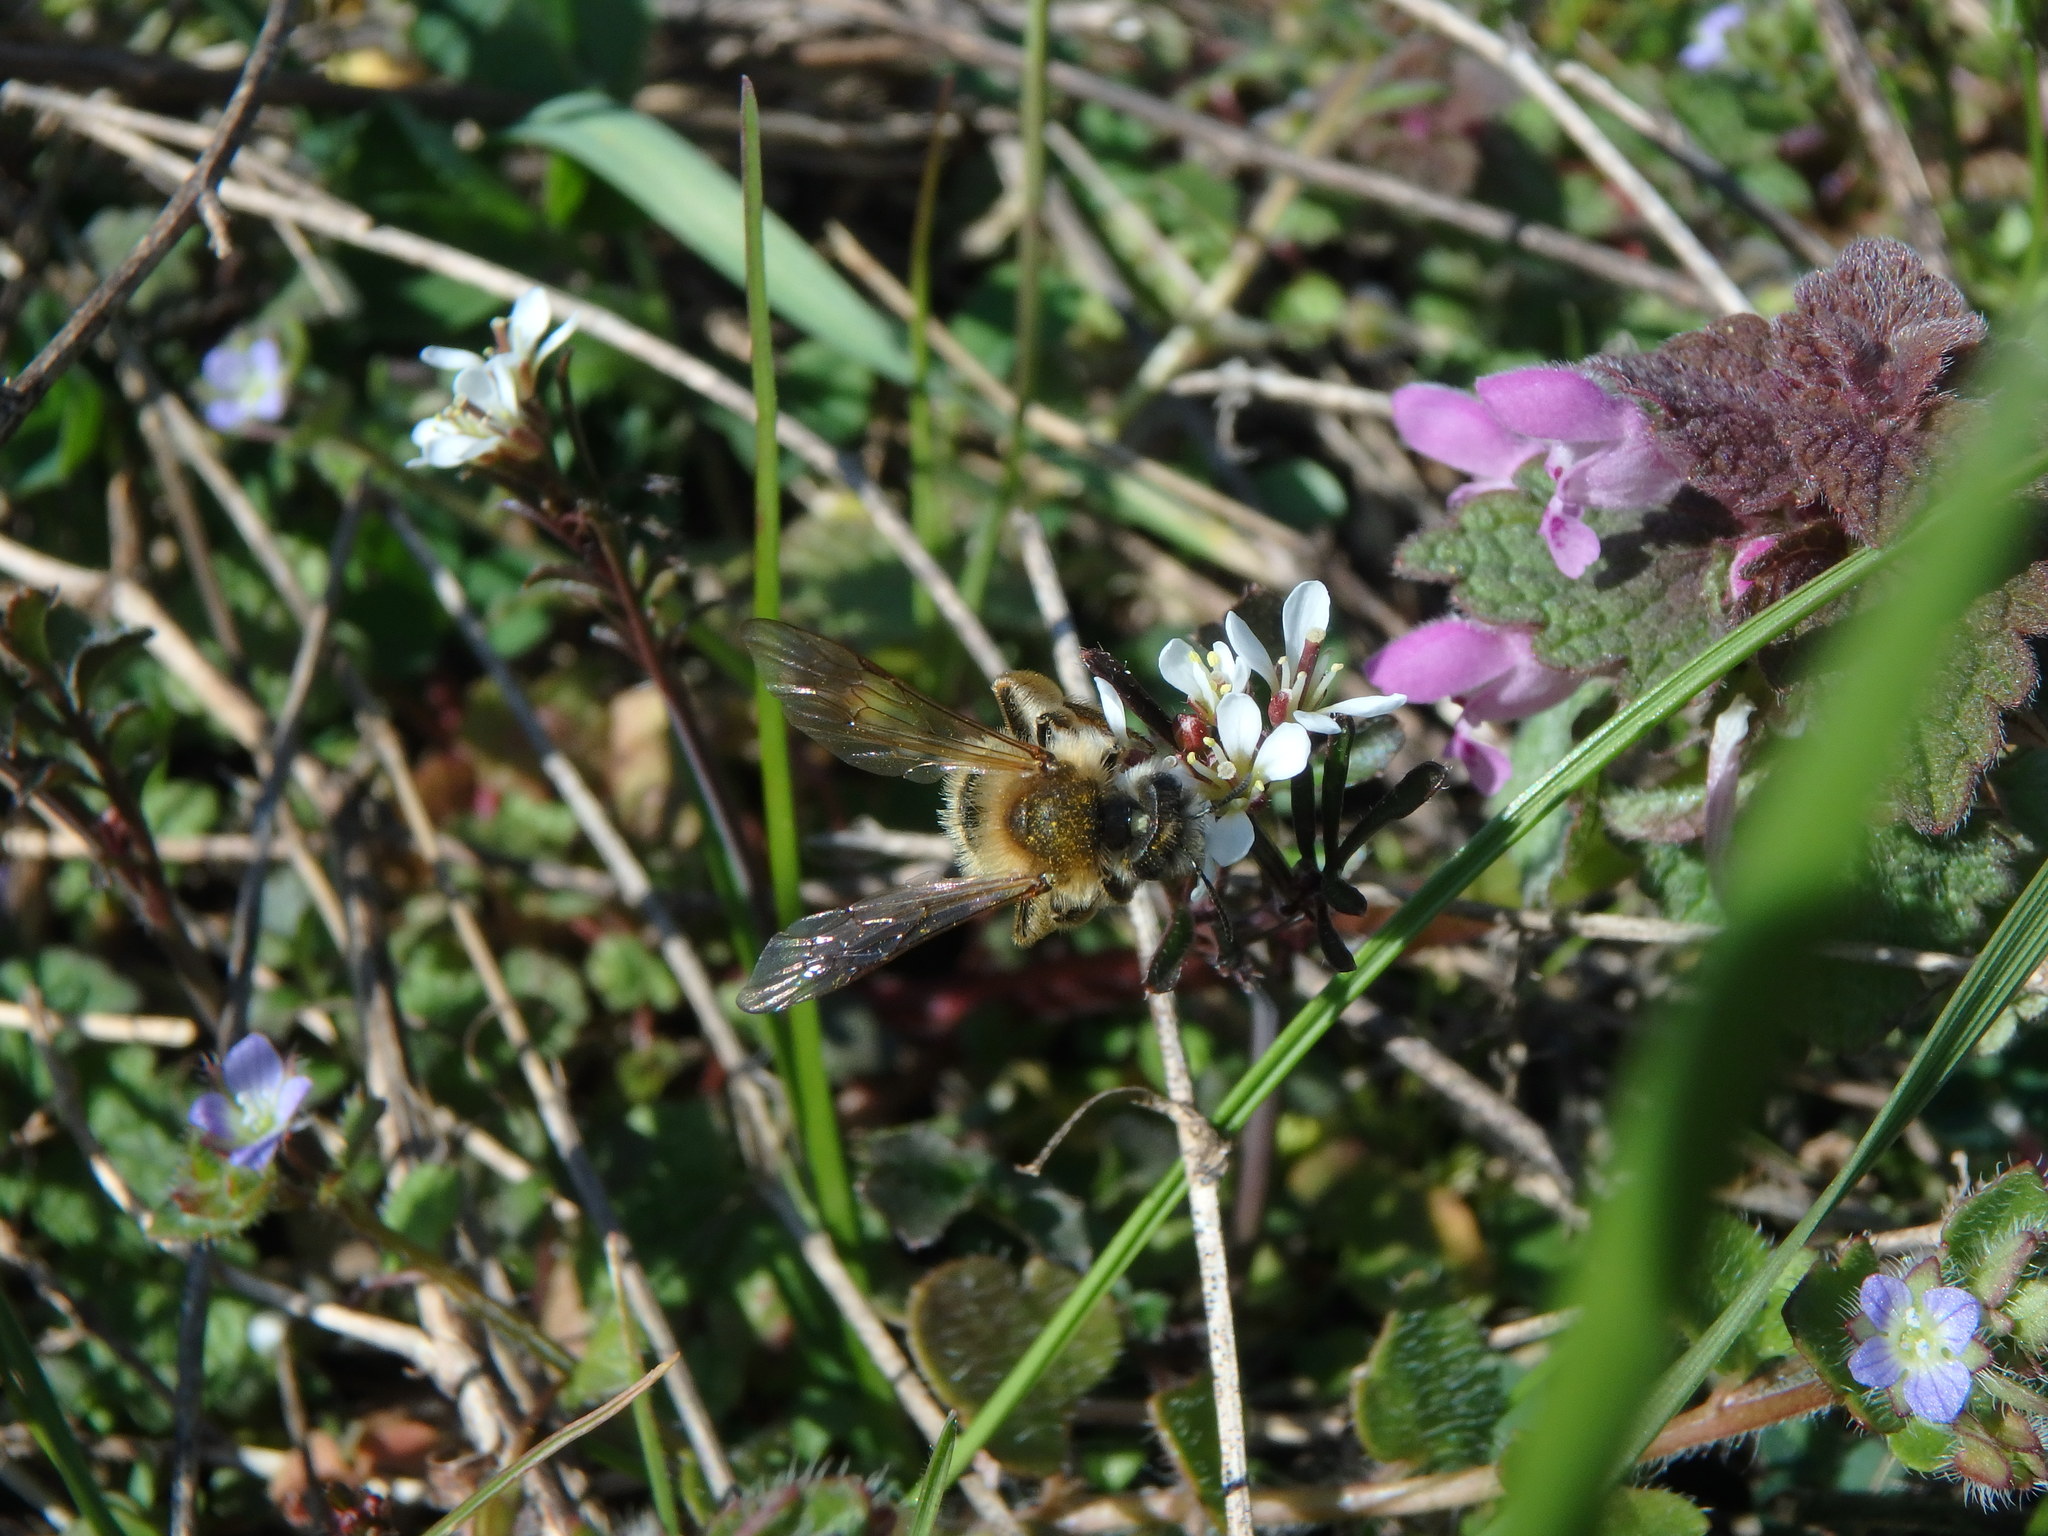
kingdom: Animalia
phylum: Arthropoda
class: Insecta
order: Hymenoptera
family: Apidae
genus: Apis
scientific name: Apis mellifera
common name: Honey bee
